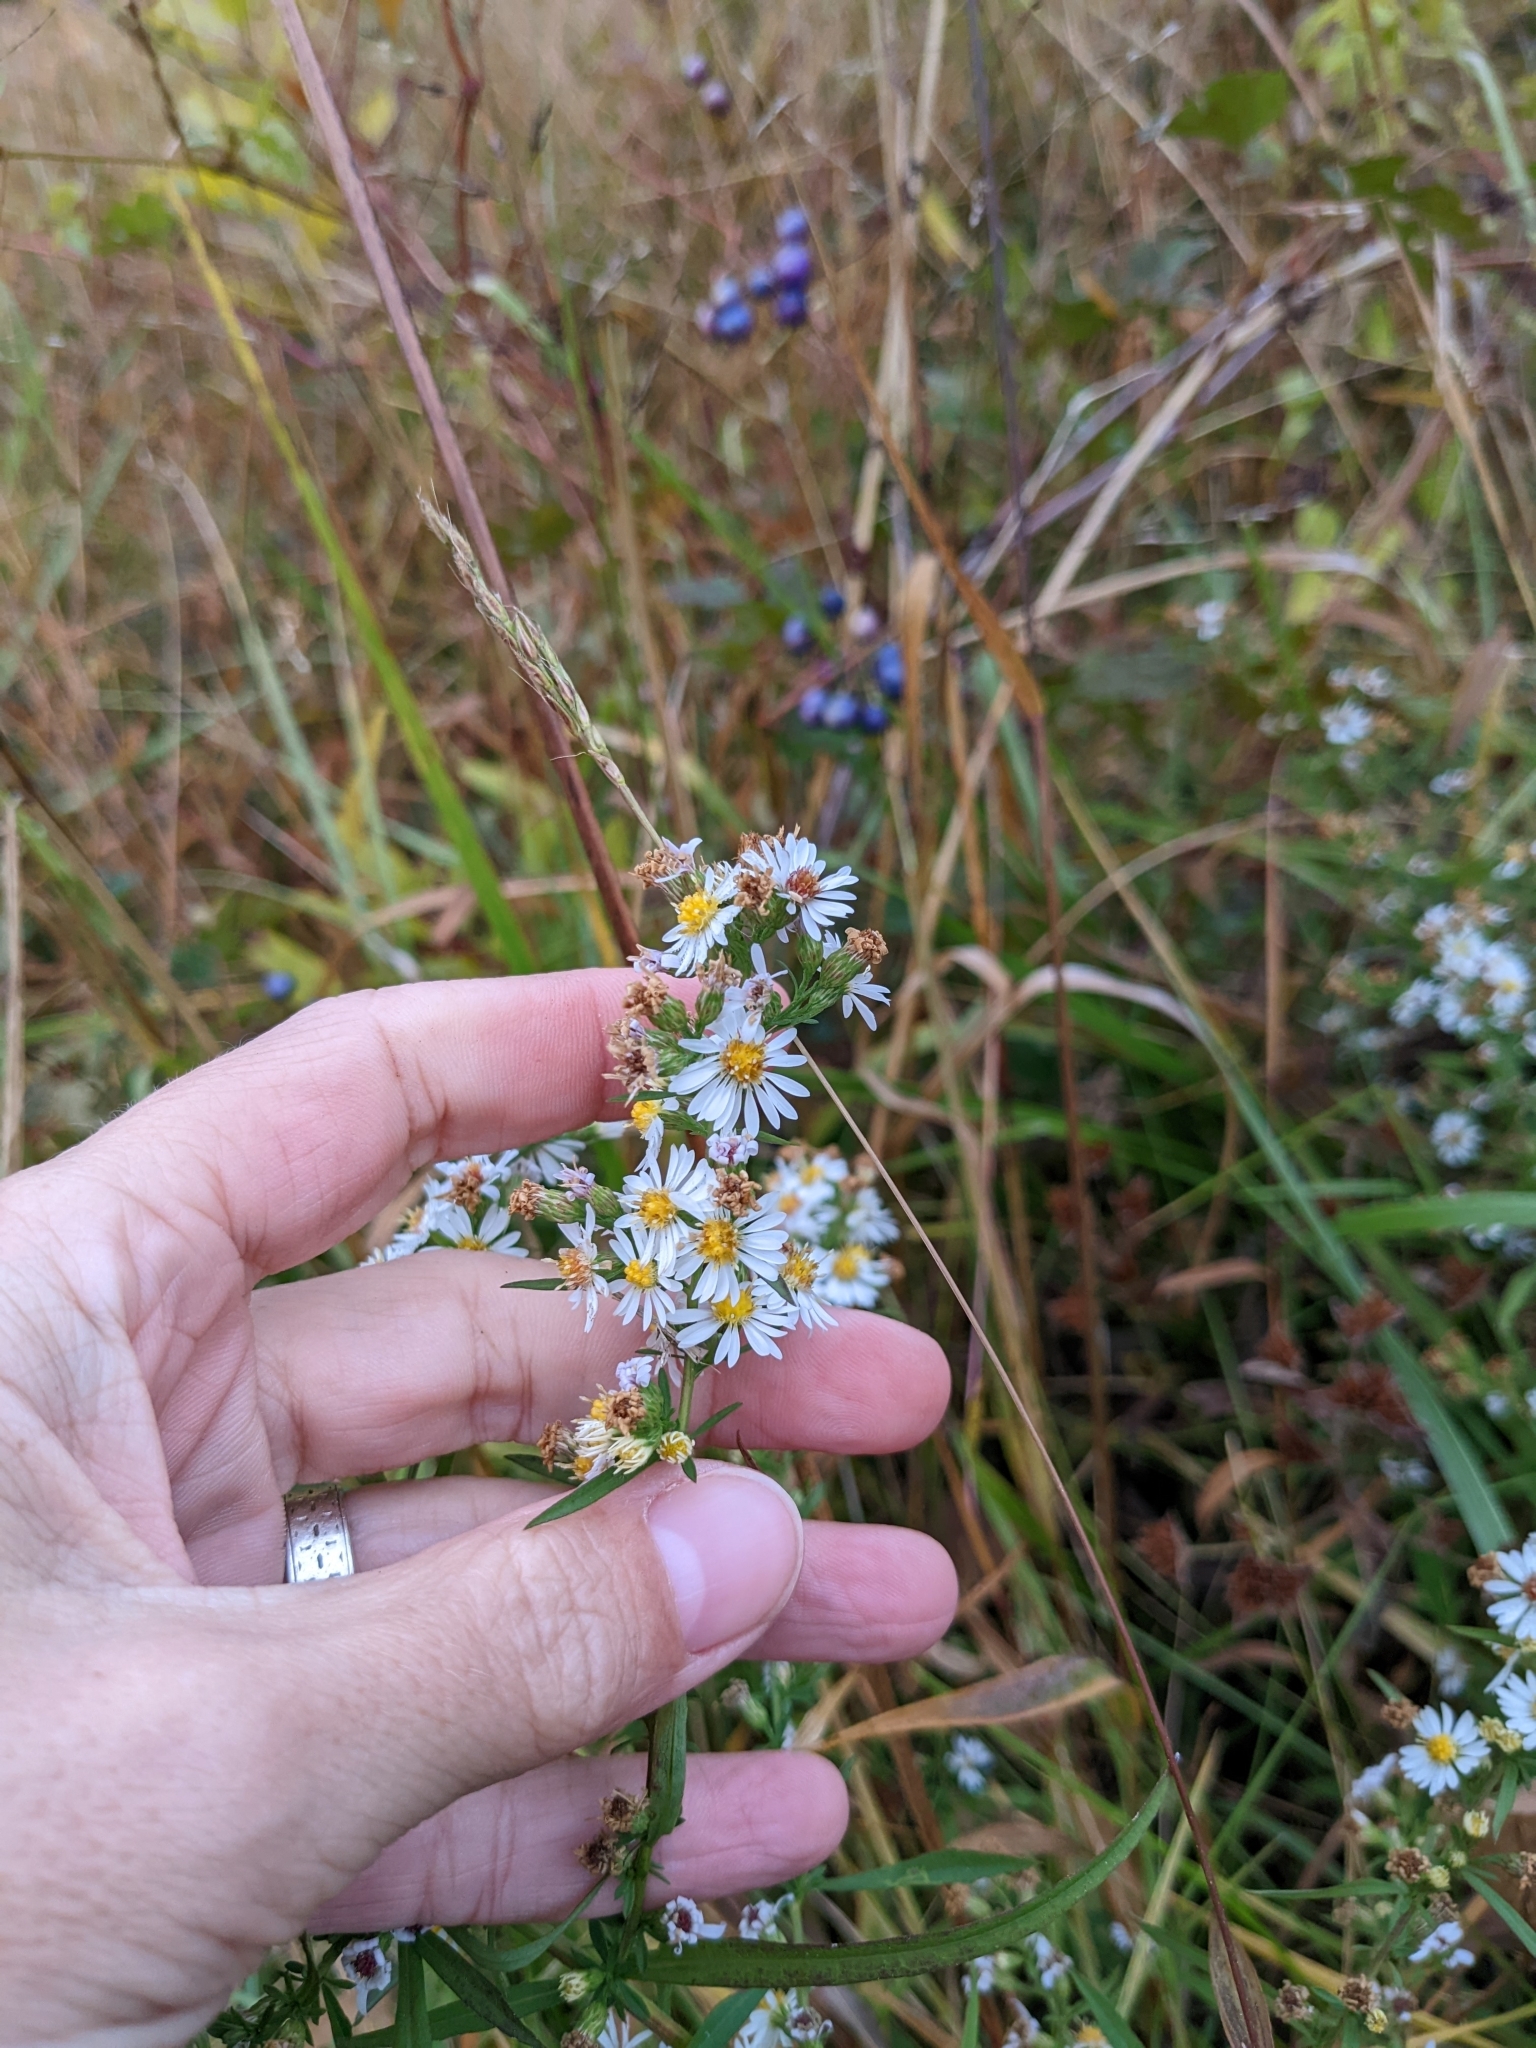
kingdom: Plantae
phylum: Tracheophyta
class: Magnoliopsida
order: Asterales
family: Asteraceae
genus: Symphyotrichum
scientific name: Symphyotrichum lanceolatum
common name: Panicled aster
